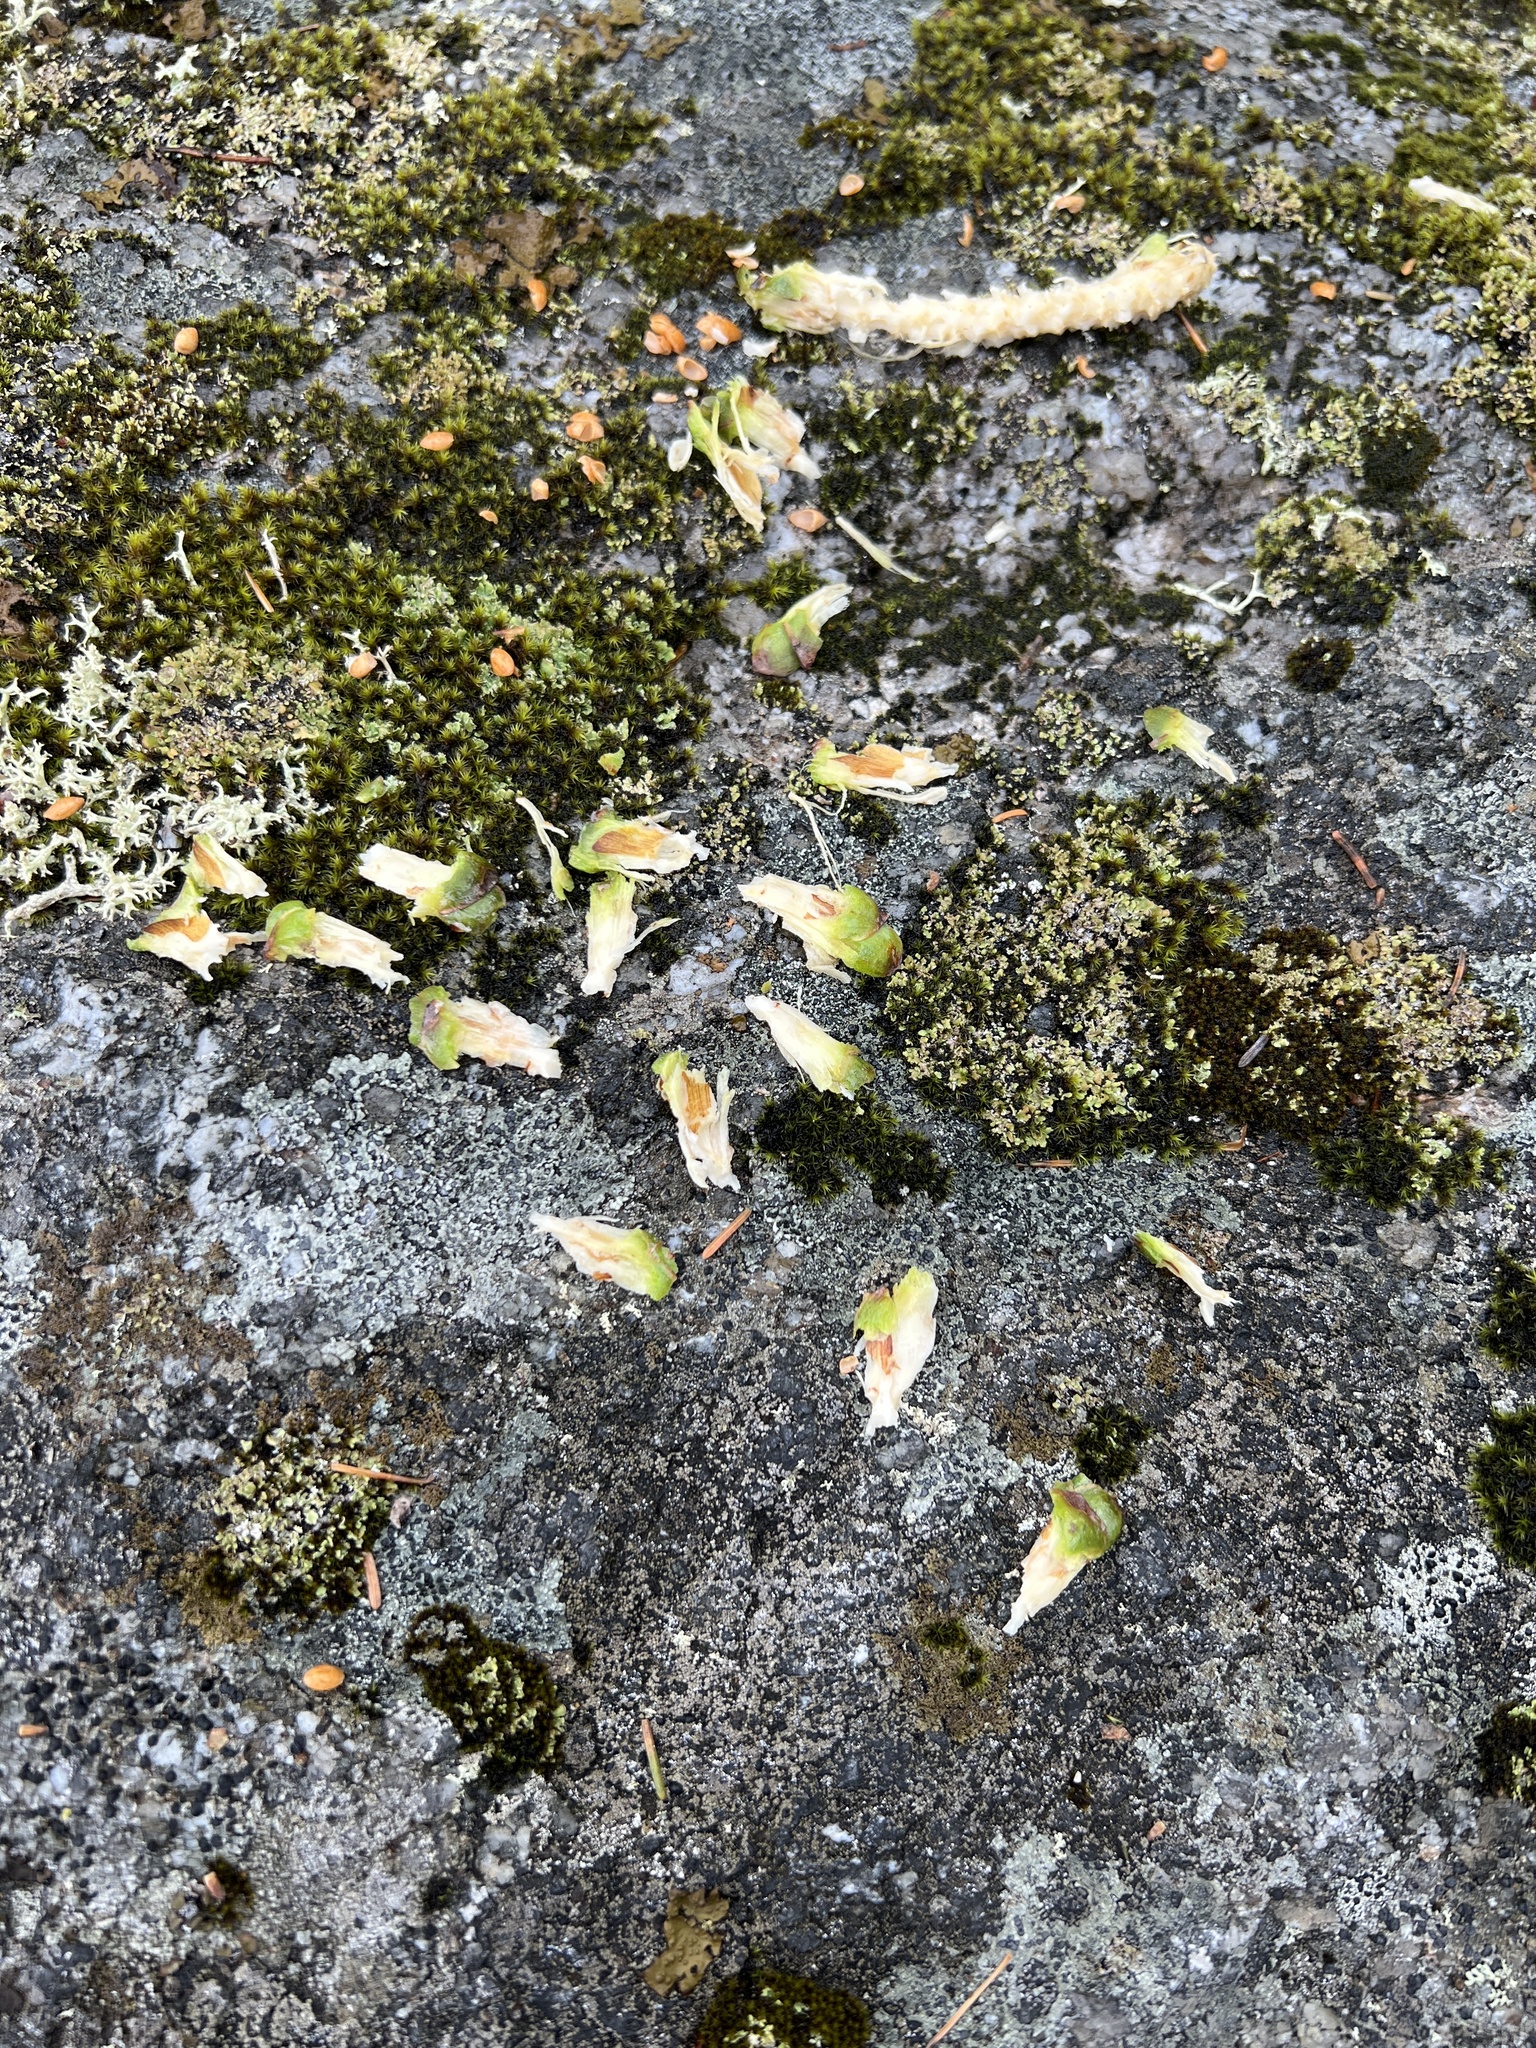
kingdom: Animalia
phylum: Chordata
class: Mammalia
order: Rodentia
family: Sciuridae
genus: Tamiasciurus
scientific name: Tamiasciurus hudsonicus
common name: Red squirrel
